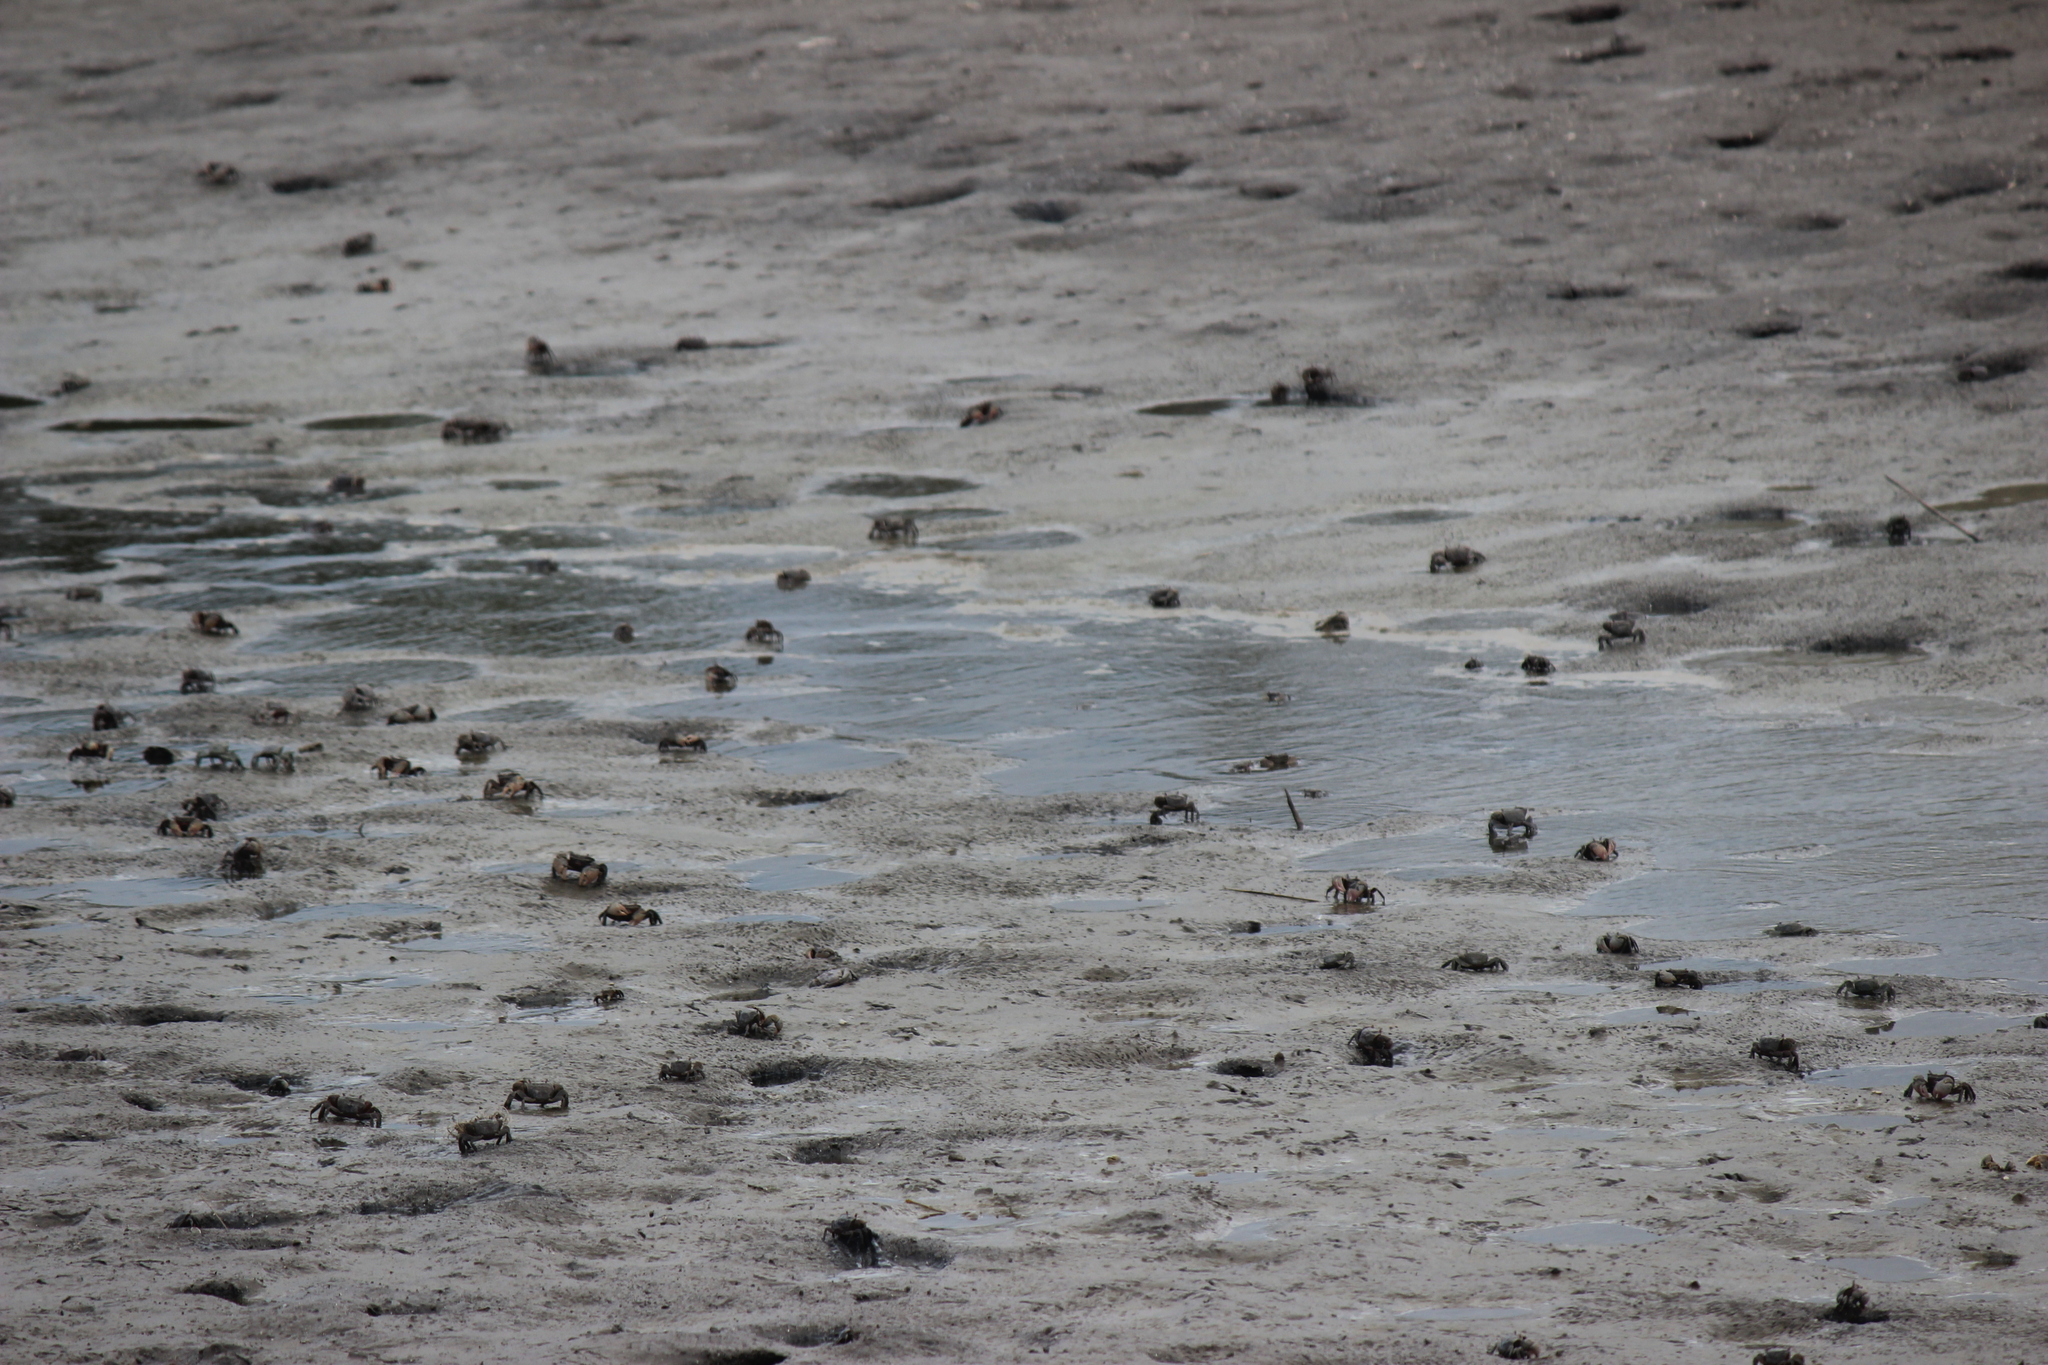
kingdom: Animalia
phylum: Arthropoda
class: Malacostraca
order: Decapoda
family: Varunidae
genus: Neohelice
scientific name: Neohelice granulata
